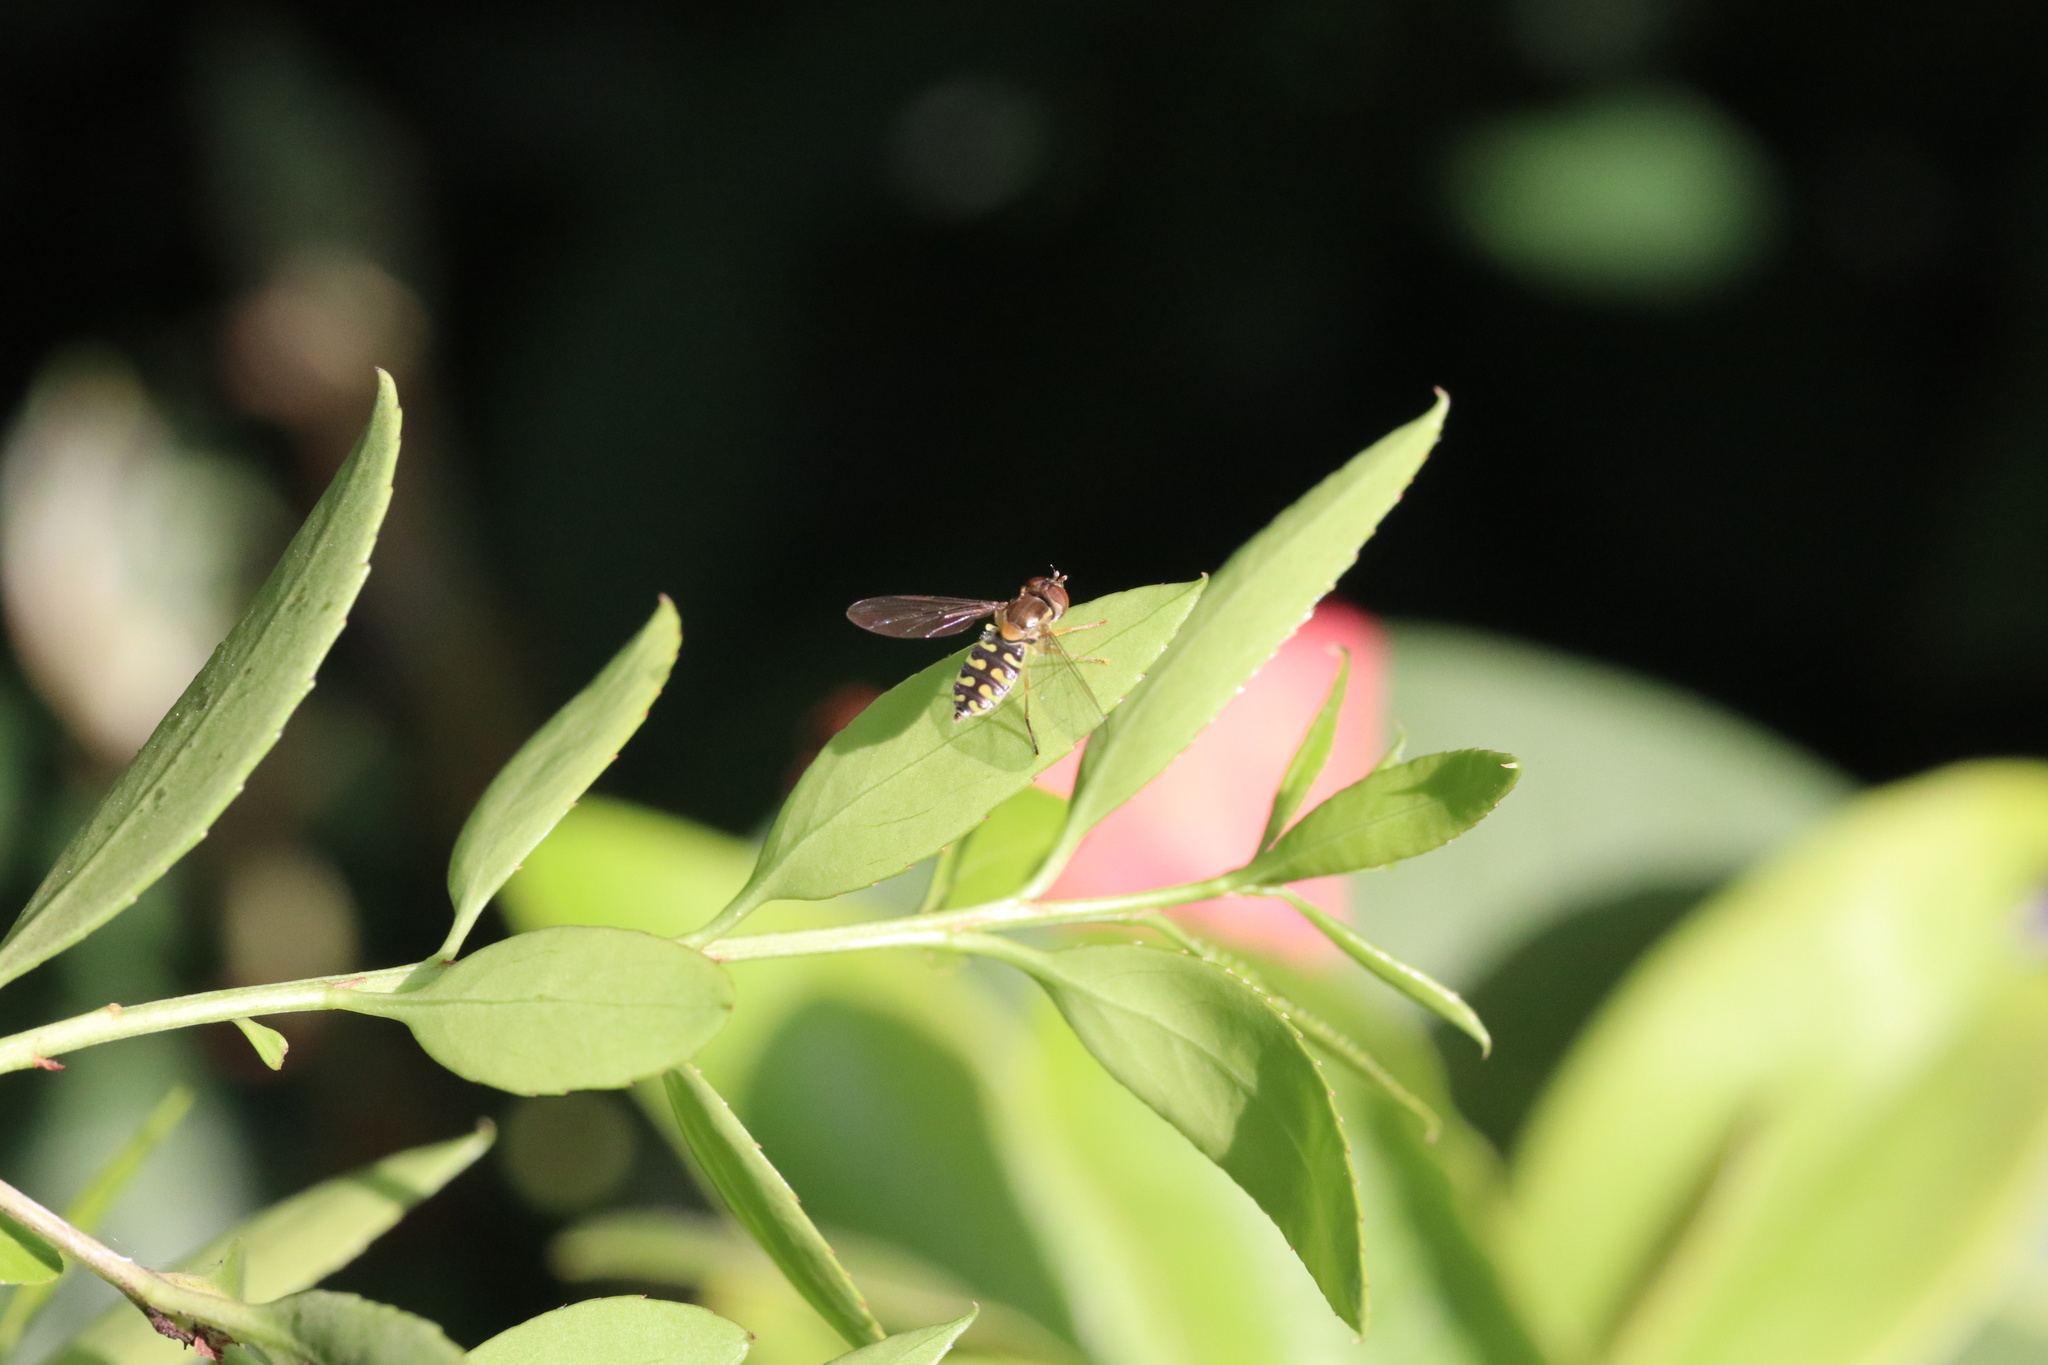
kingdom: Animalia
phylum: Arthropoda
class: Insecta
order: Diptera
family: Syrphidae
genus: Toxomerus
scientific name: Toxomerus vertebratus
